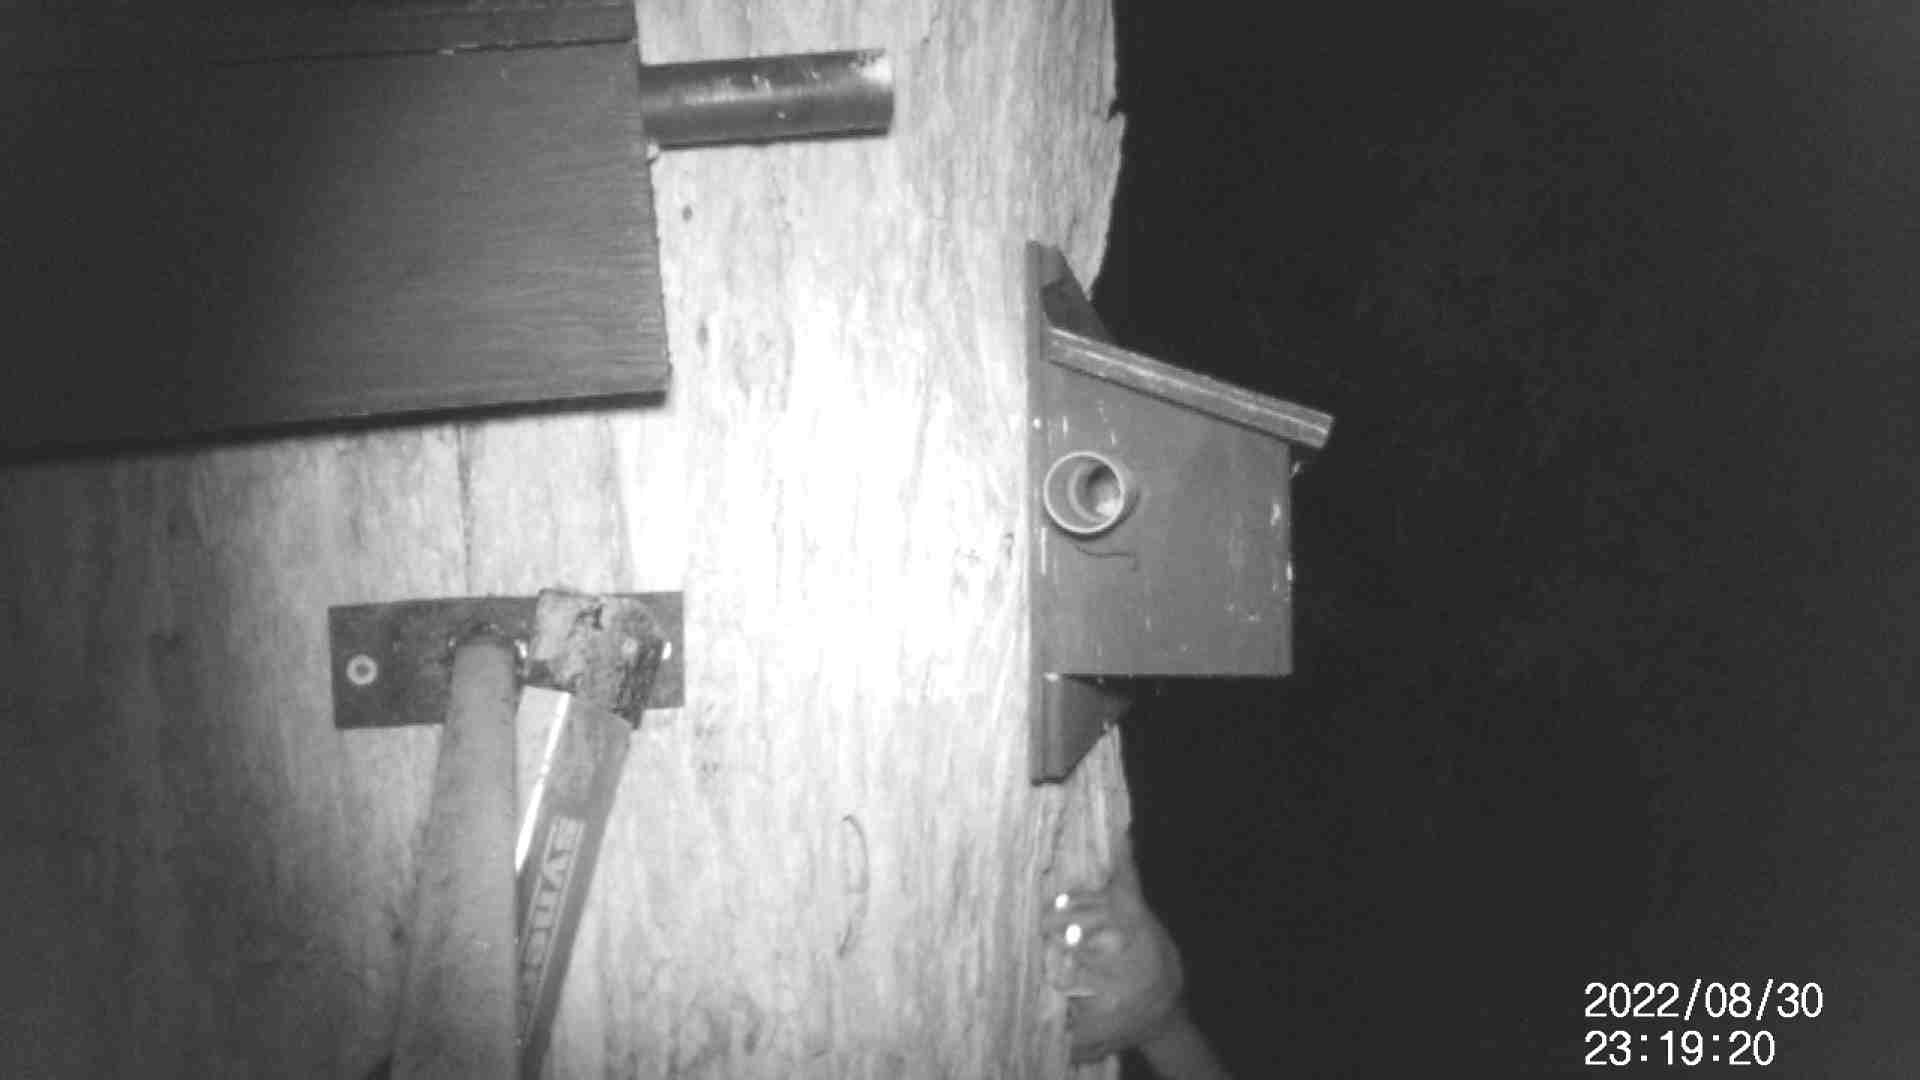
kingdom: Animalia
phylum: Chordata
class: Mammalia
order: Diprotodontia
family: Petauridae
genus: Petaurus
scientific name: Petaurus breviceps
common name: Sugar glider
